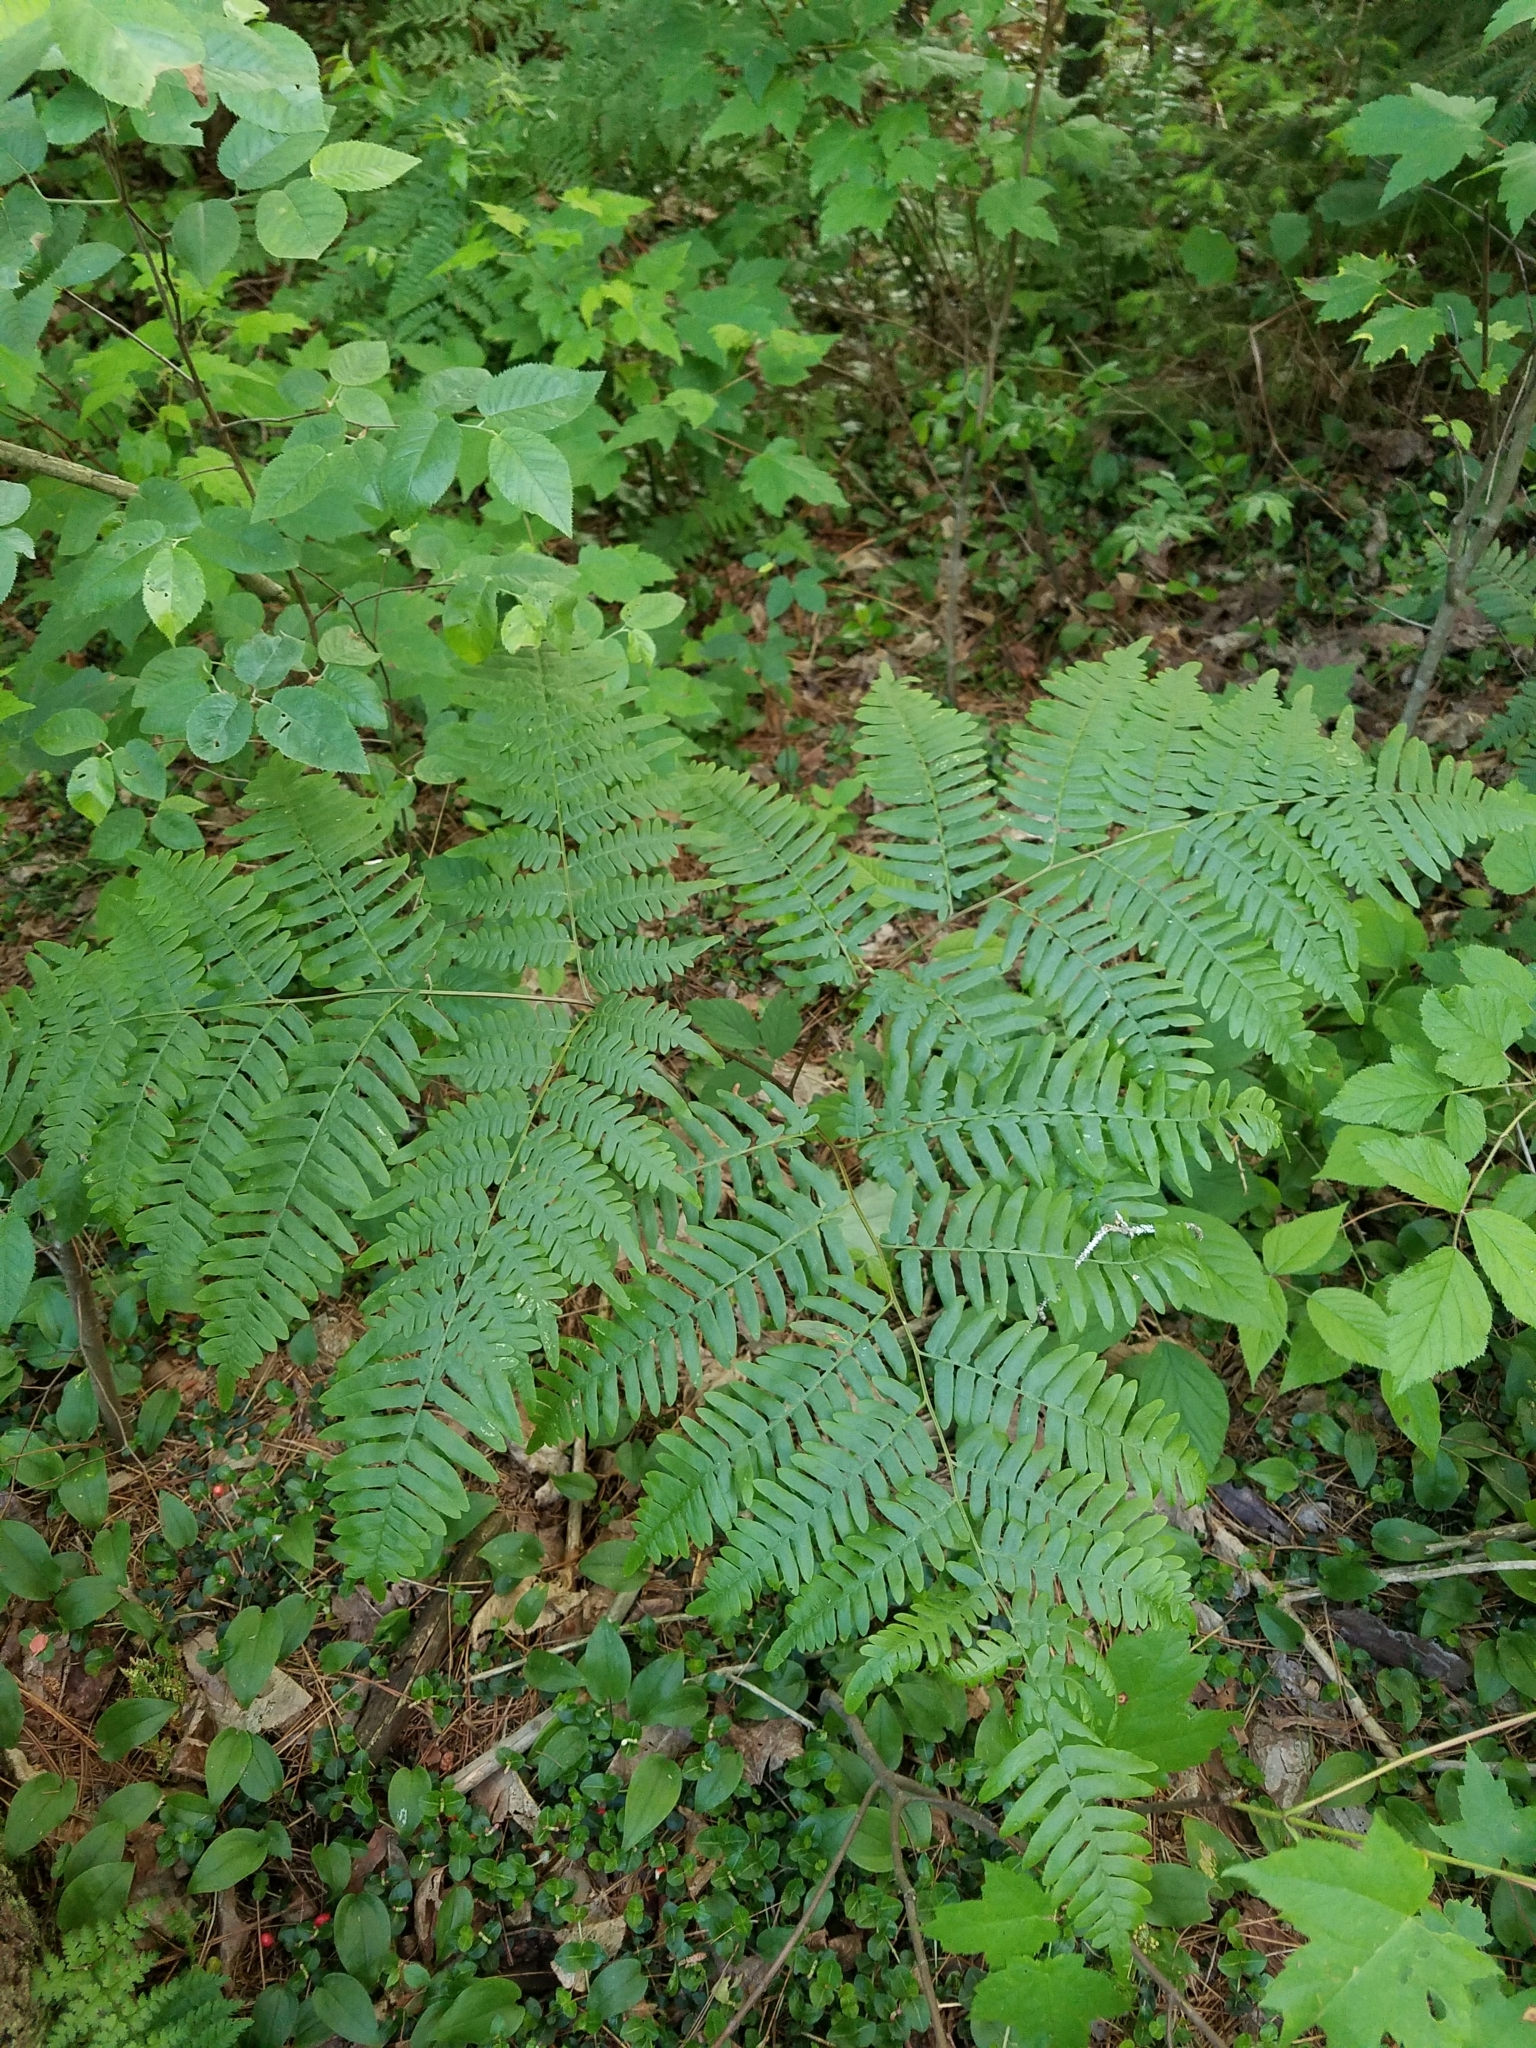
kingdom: Plantae
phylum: Tracheophyta
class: Polypodiopsida
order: Polypodiales
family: Dennstaedtiaceae
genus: Pteridium
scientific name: Pteridium aquilinum
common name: Bracken
